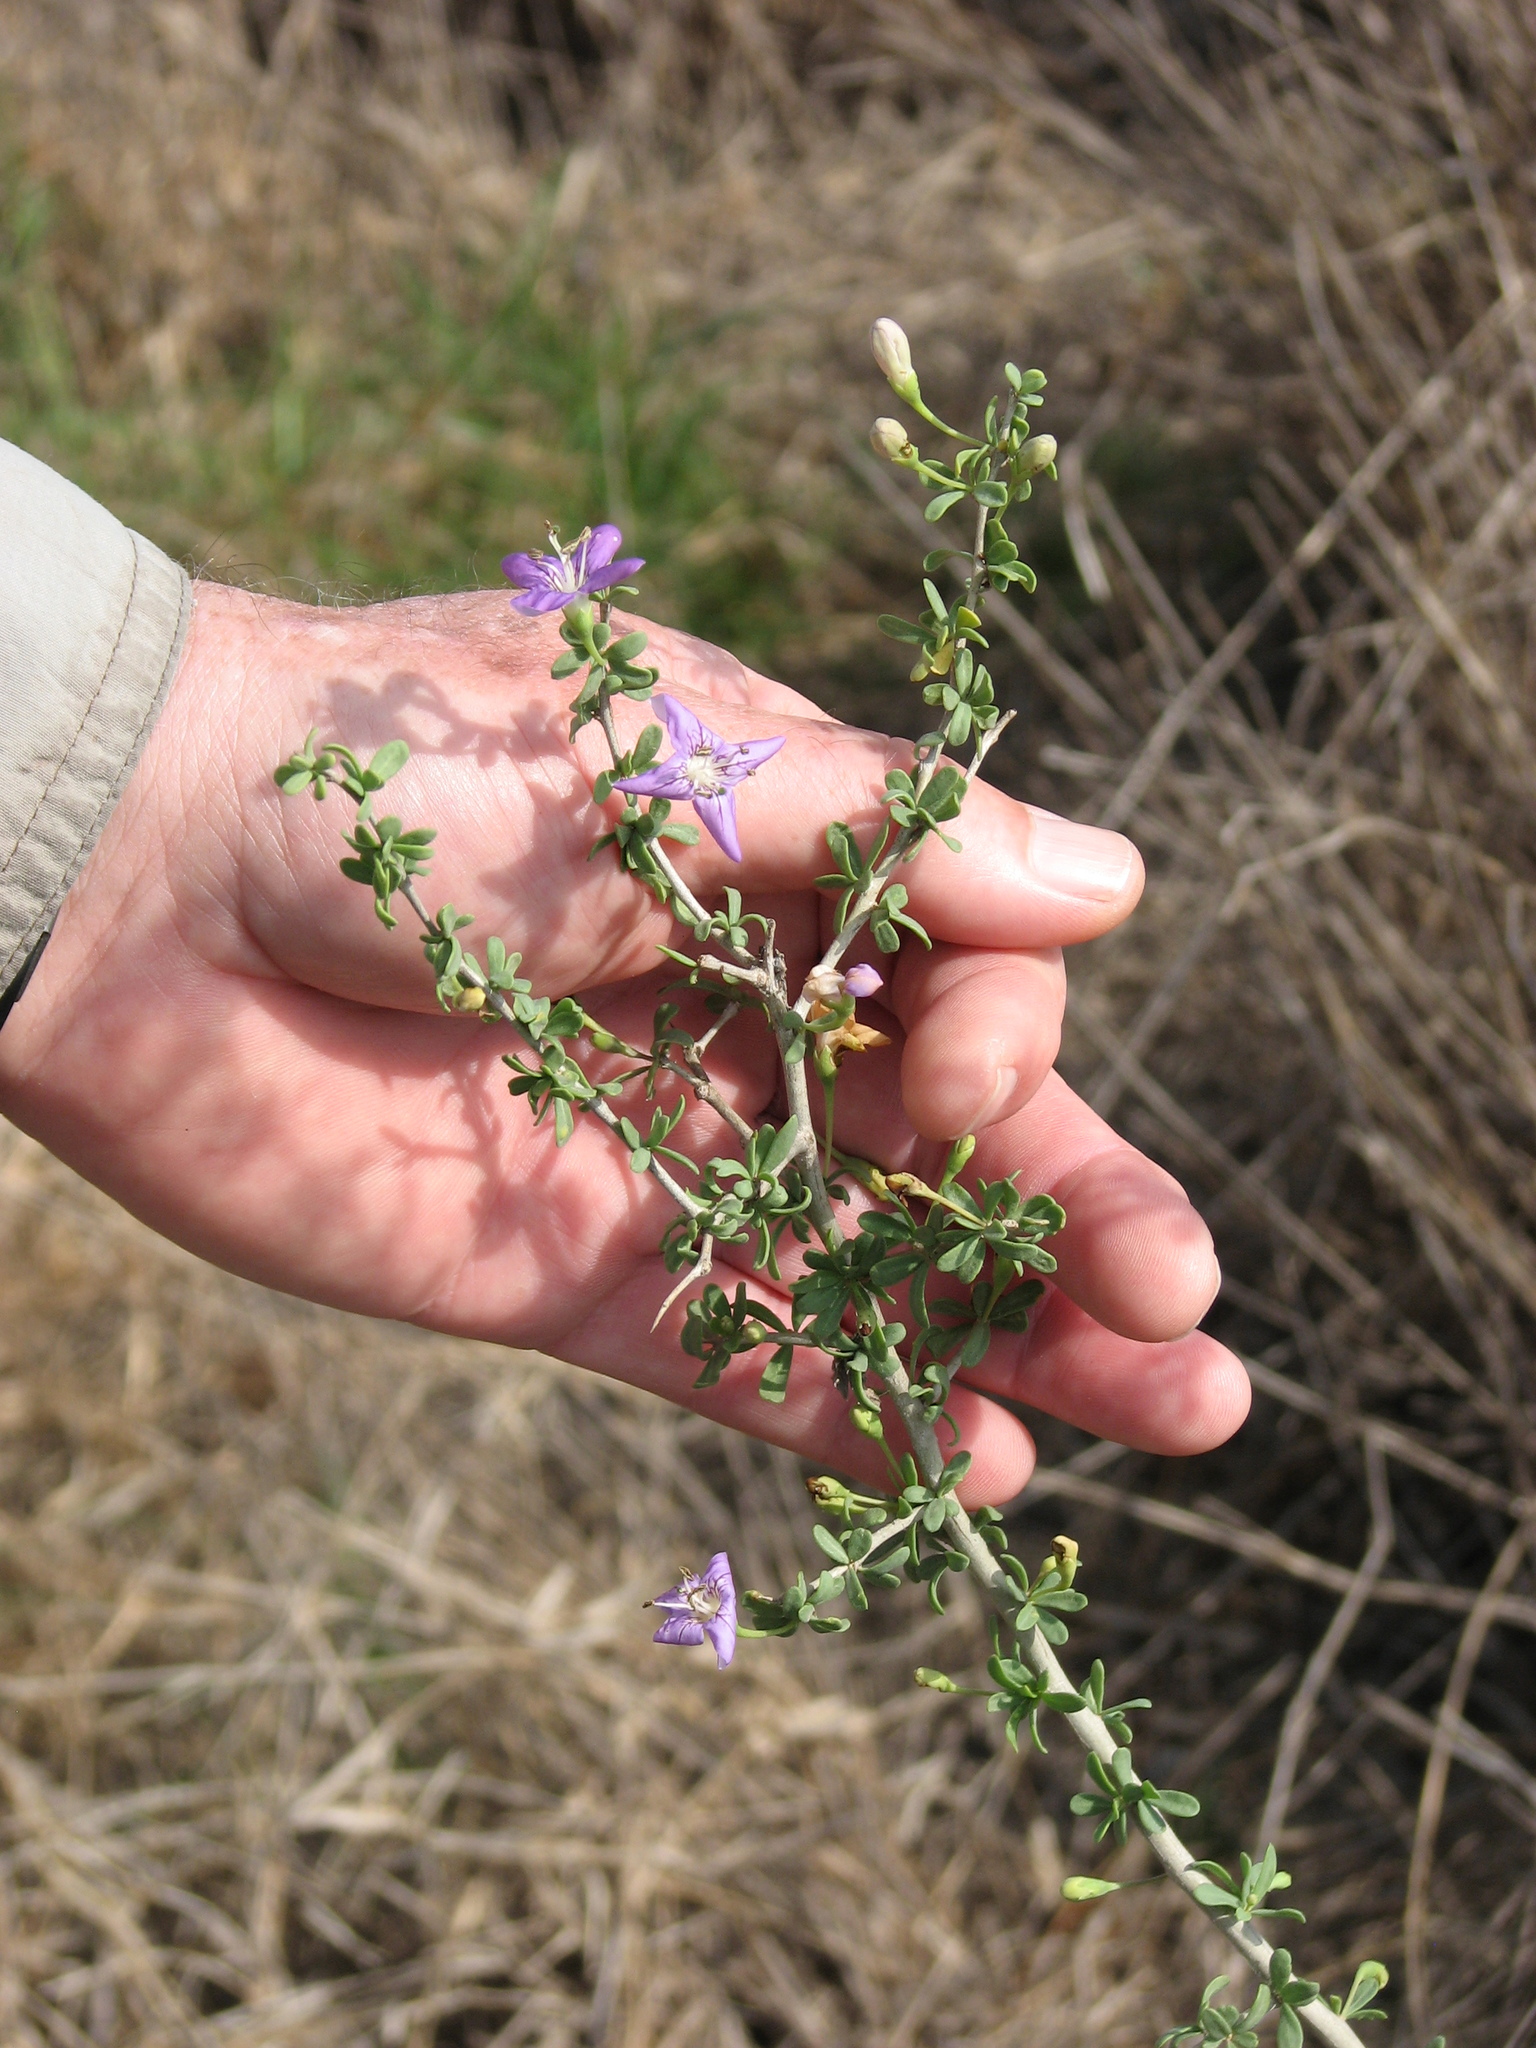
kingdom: Plantae
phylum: Tracheophyta
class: Magnoliopsida
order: Solanales
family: Solanaceae
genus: Lycium
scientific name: Lycium carolinianum
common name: Christmasberry
